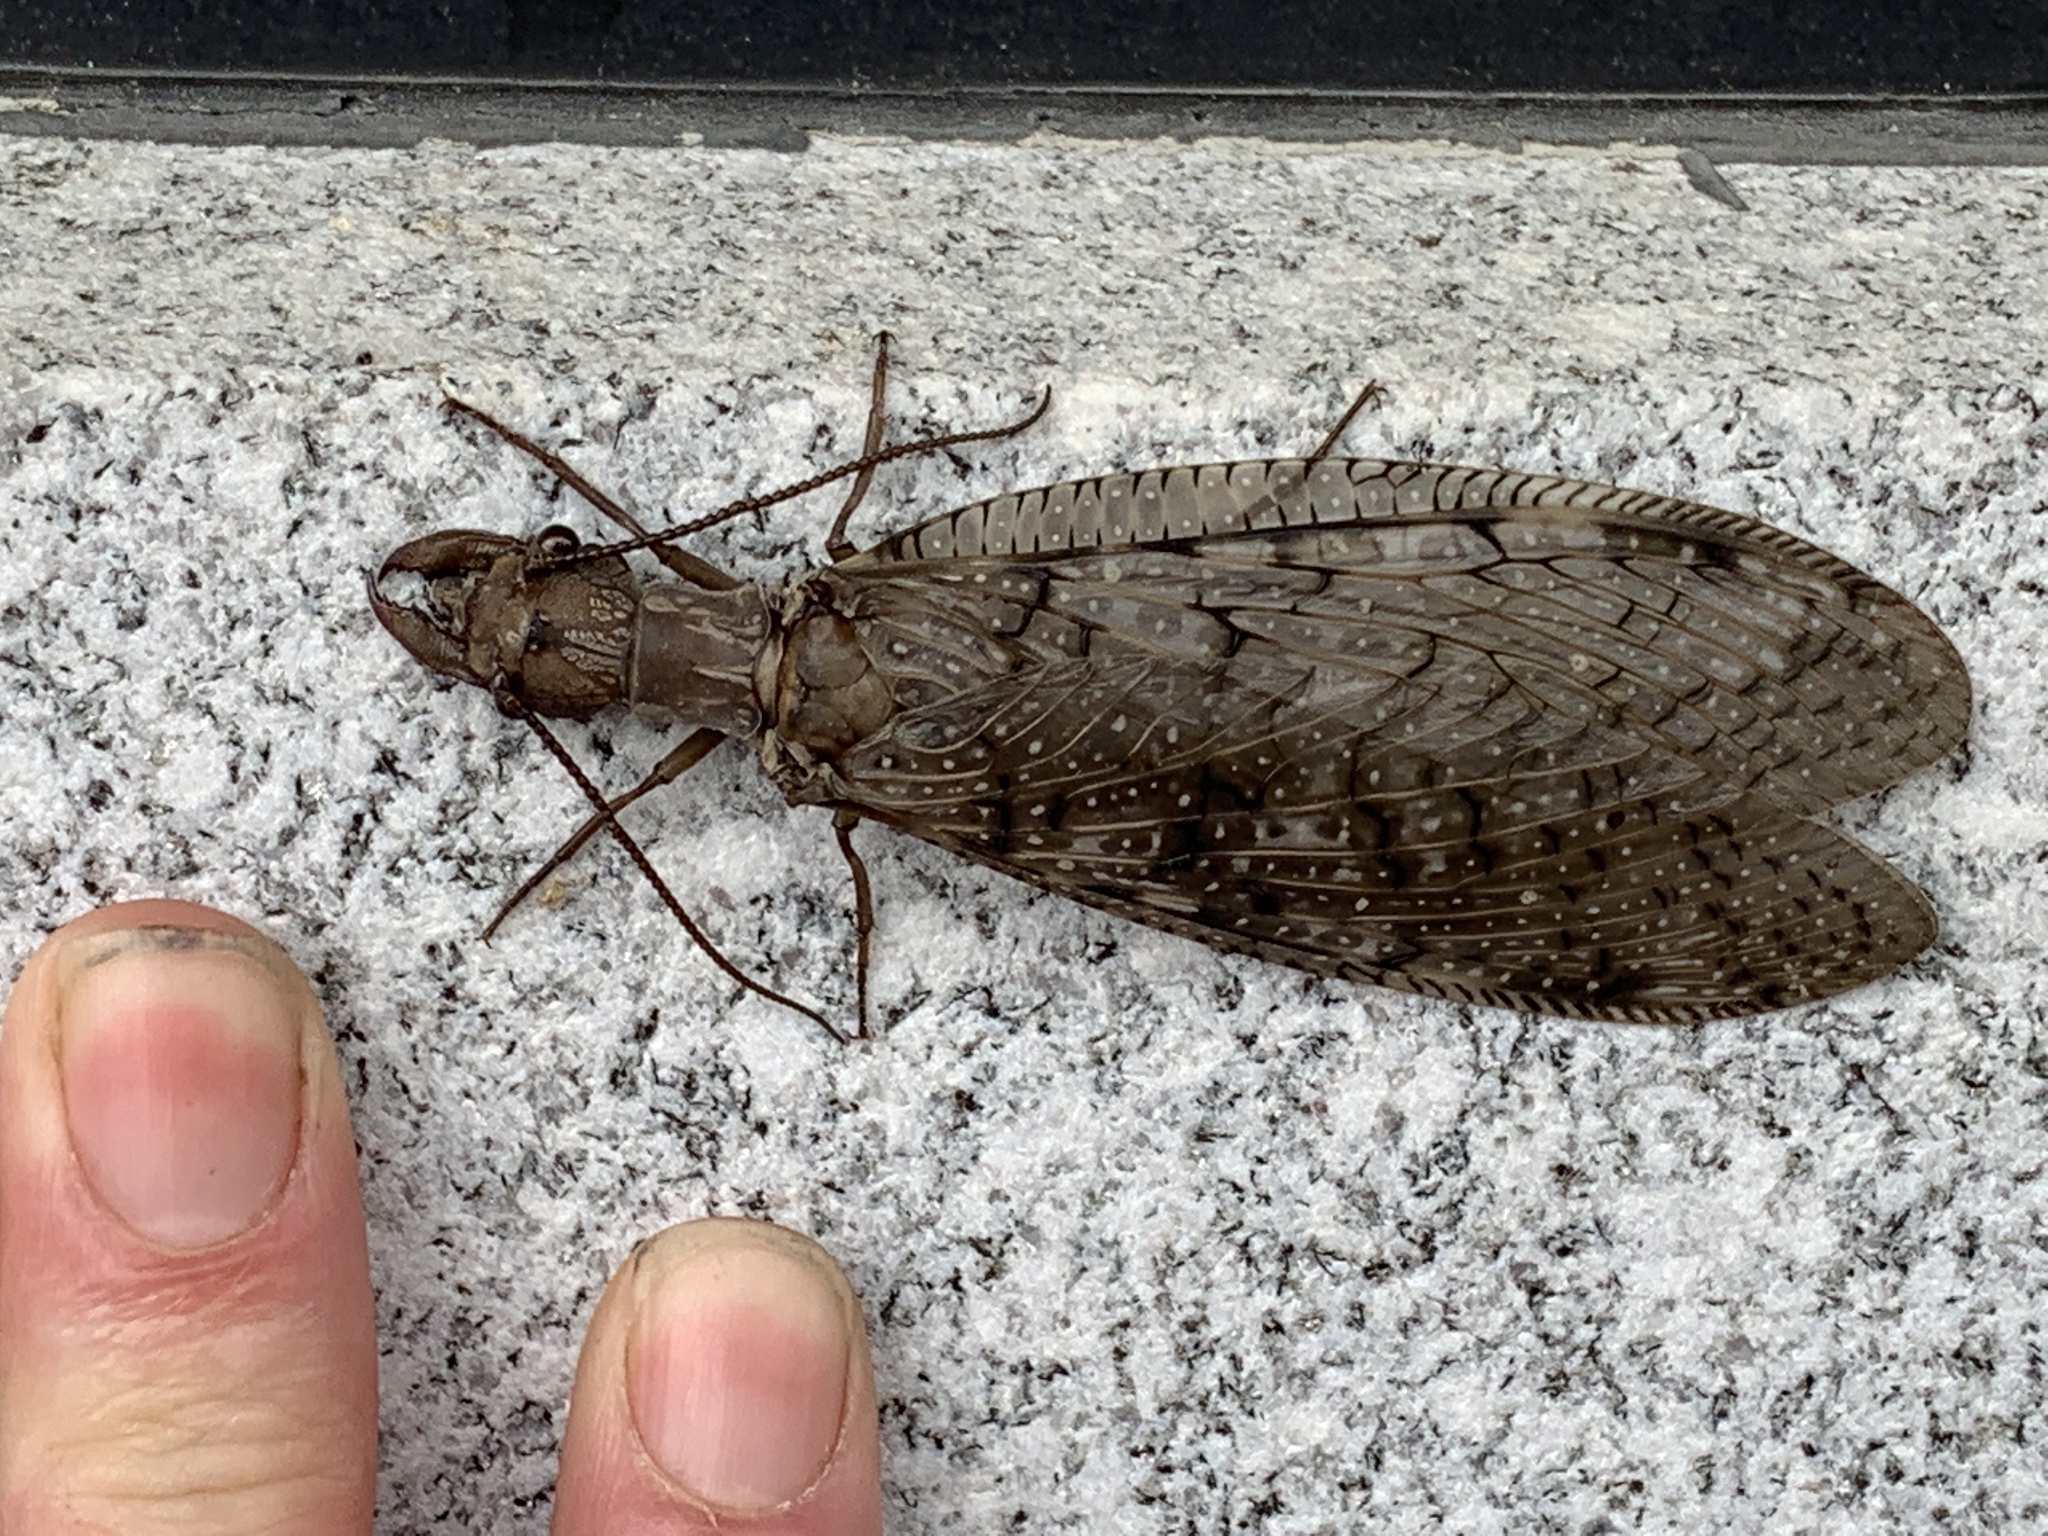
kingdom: Animalia
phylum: Arthropoda
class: Insecta
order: Megaloptera
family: Corydalidae
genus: Corydalus
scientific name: Corydalus cornutus
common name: Dobsonfly
